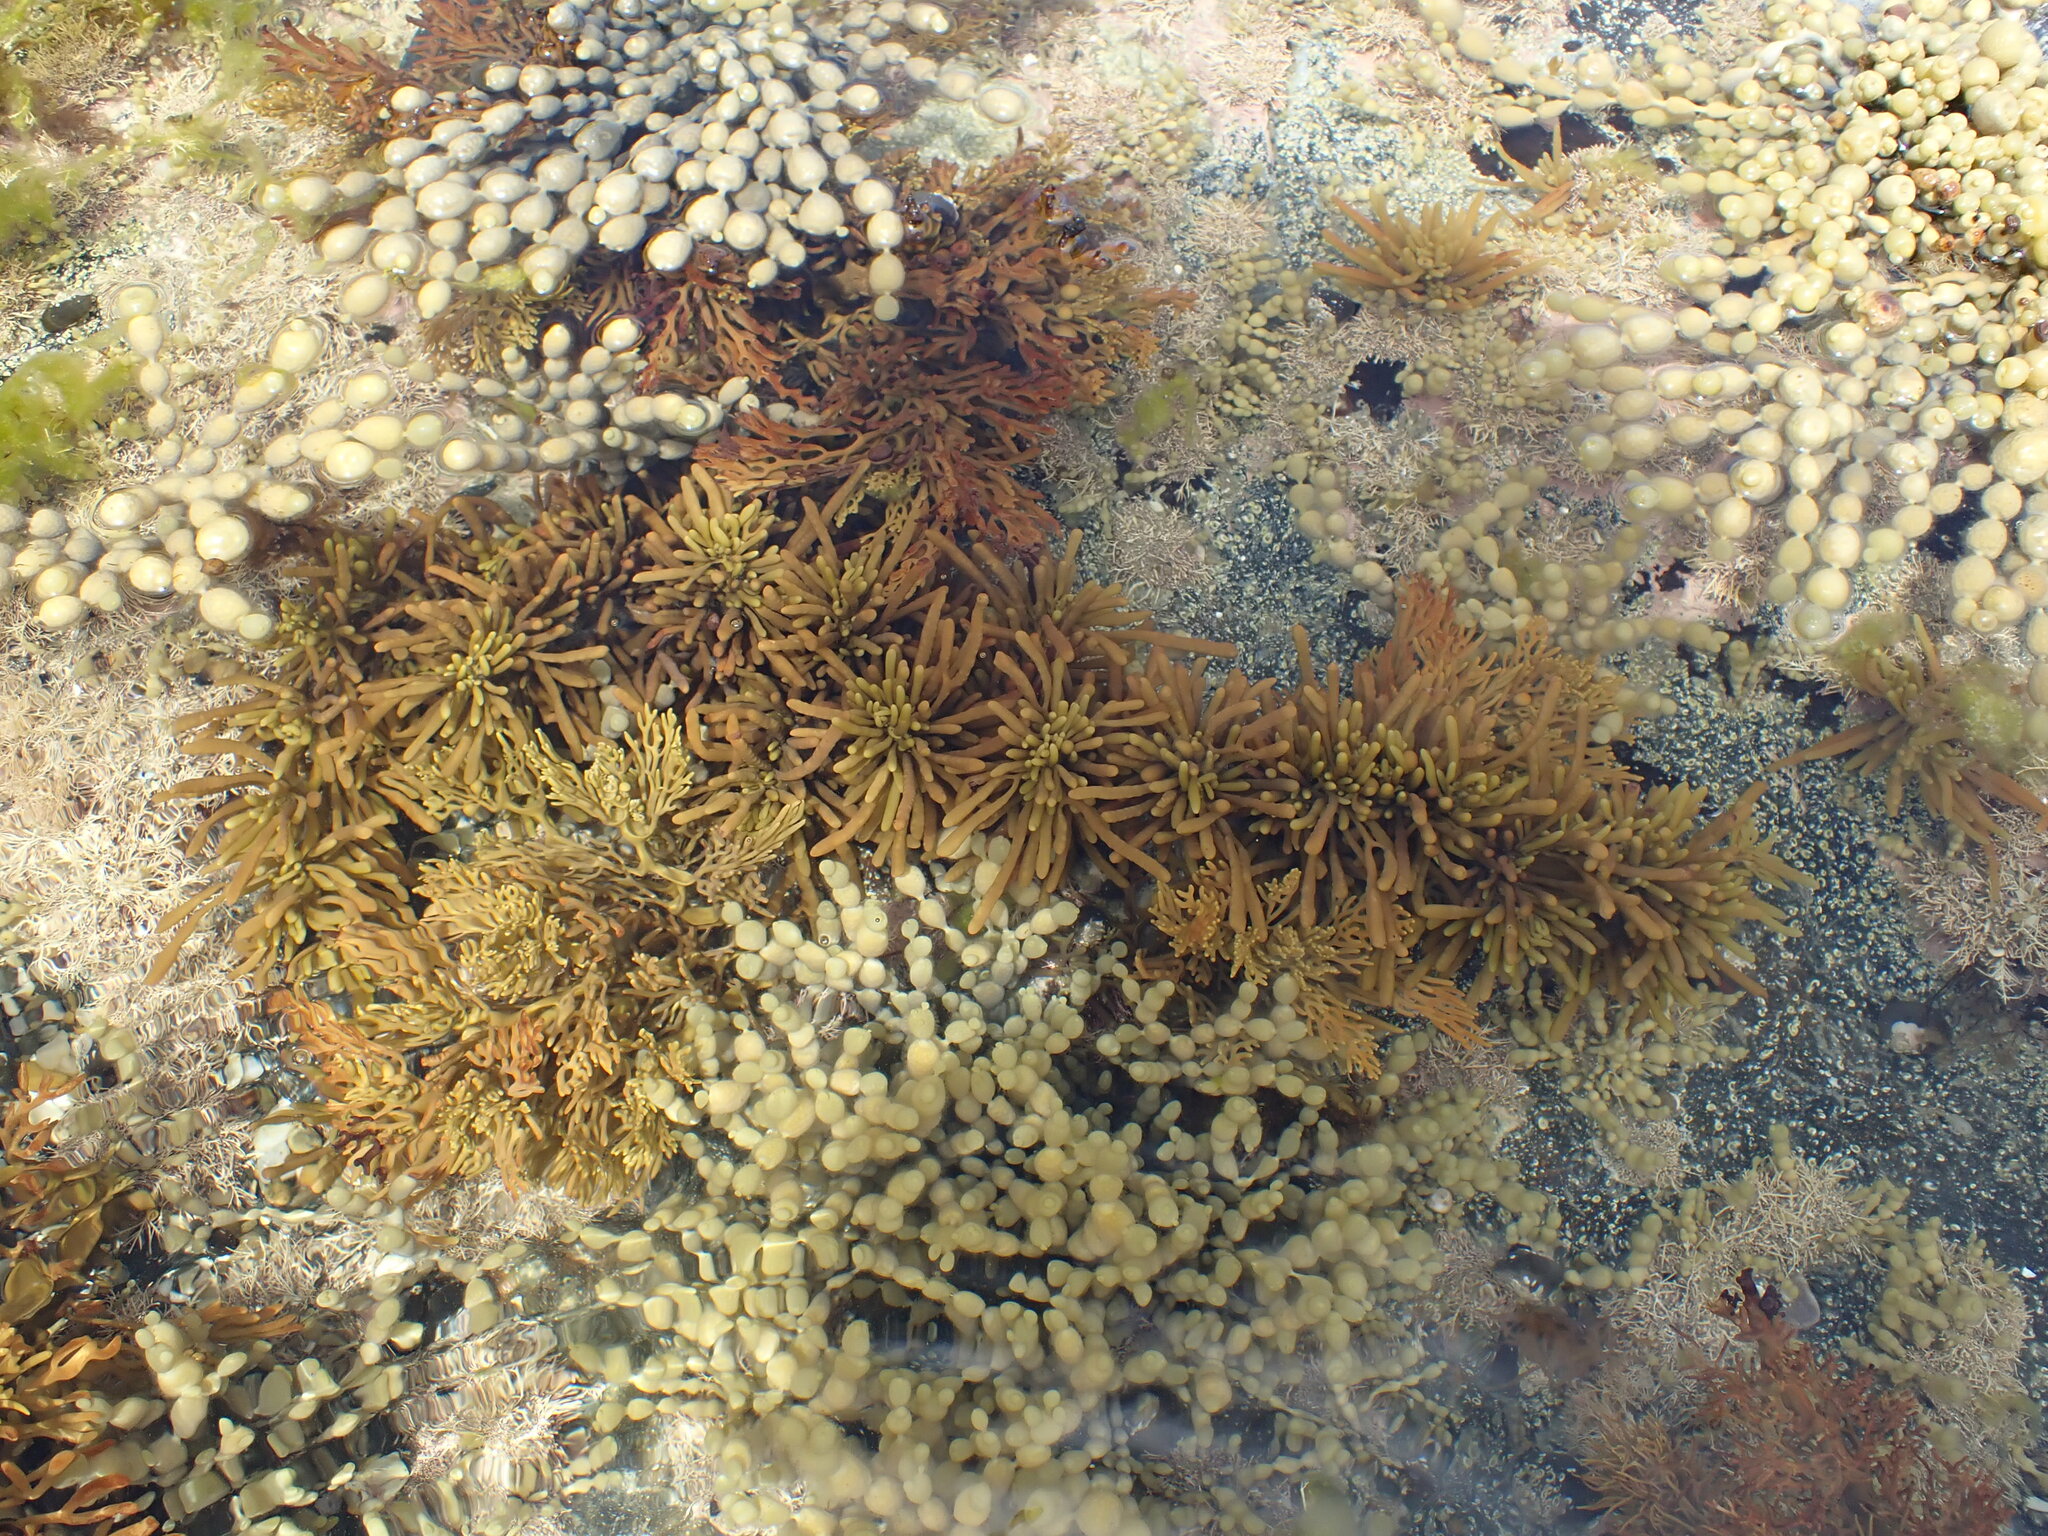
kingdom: Chromista
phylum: Ochrophyta
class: Phaeophyceae
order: Fucales
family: Sargassaceae
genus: Cystophora
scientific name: Cystophora torulosa
